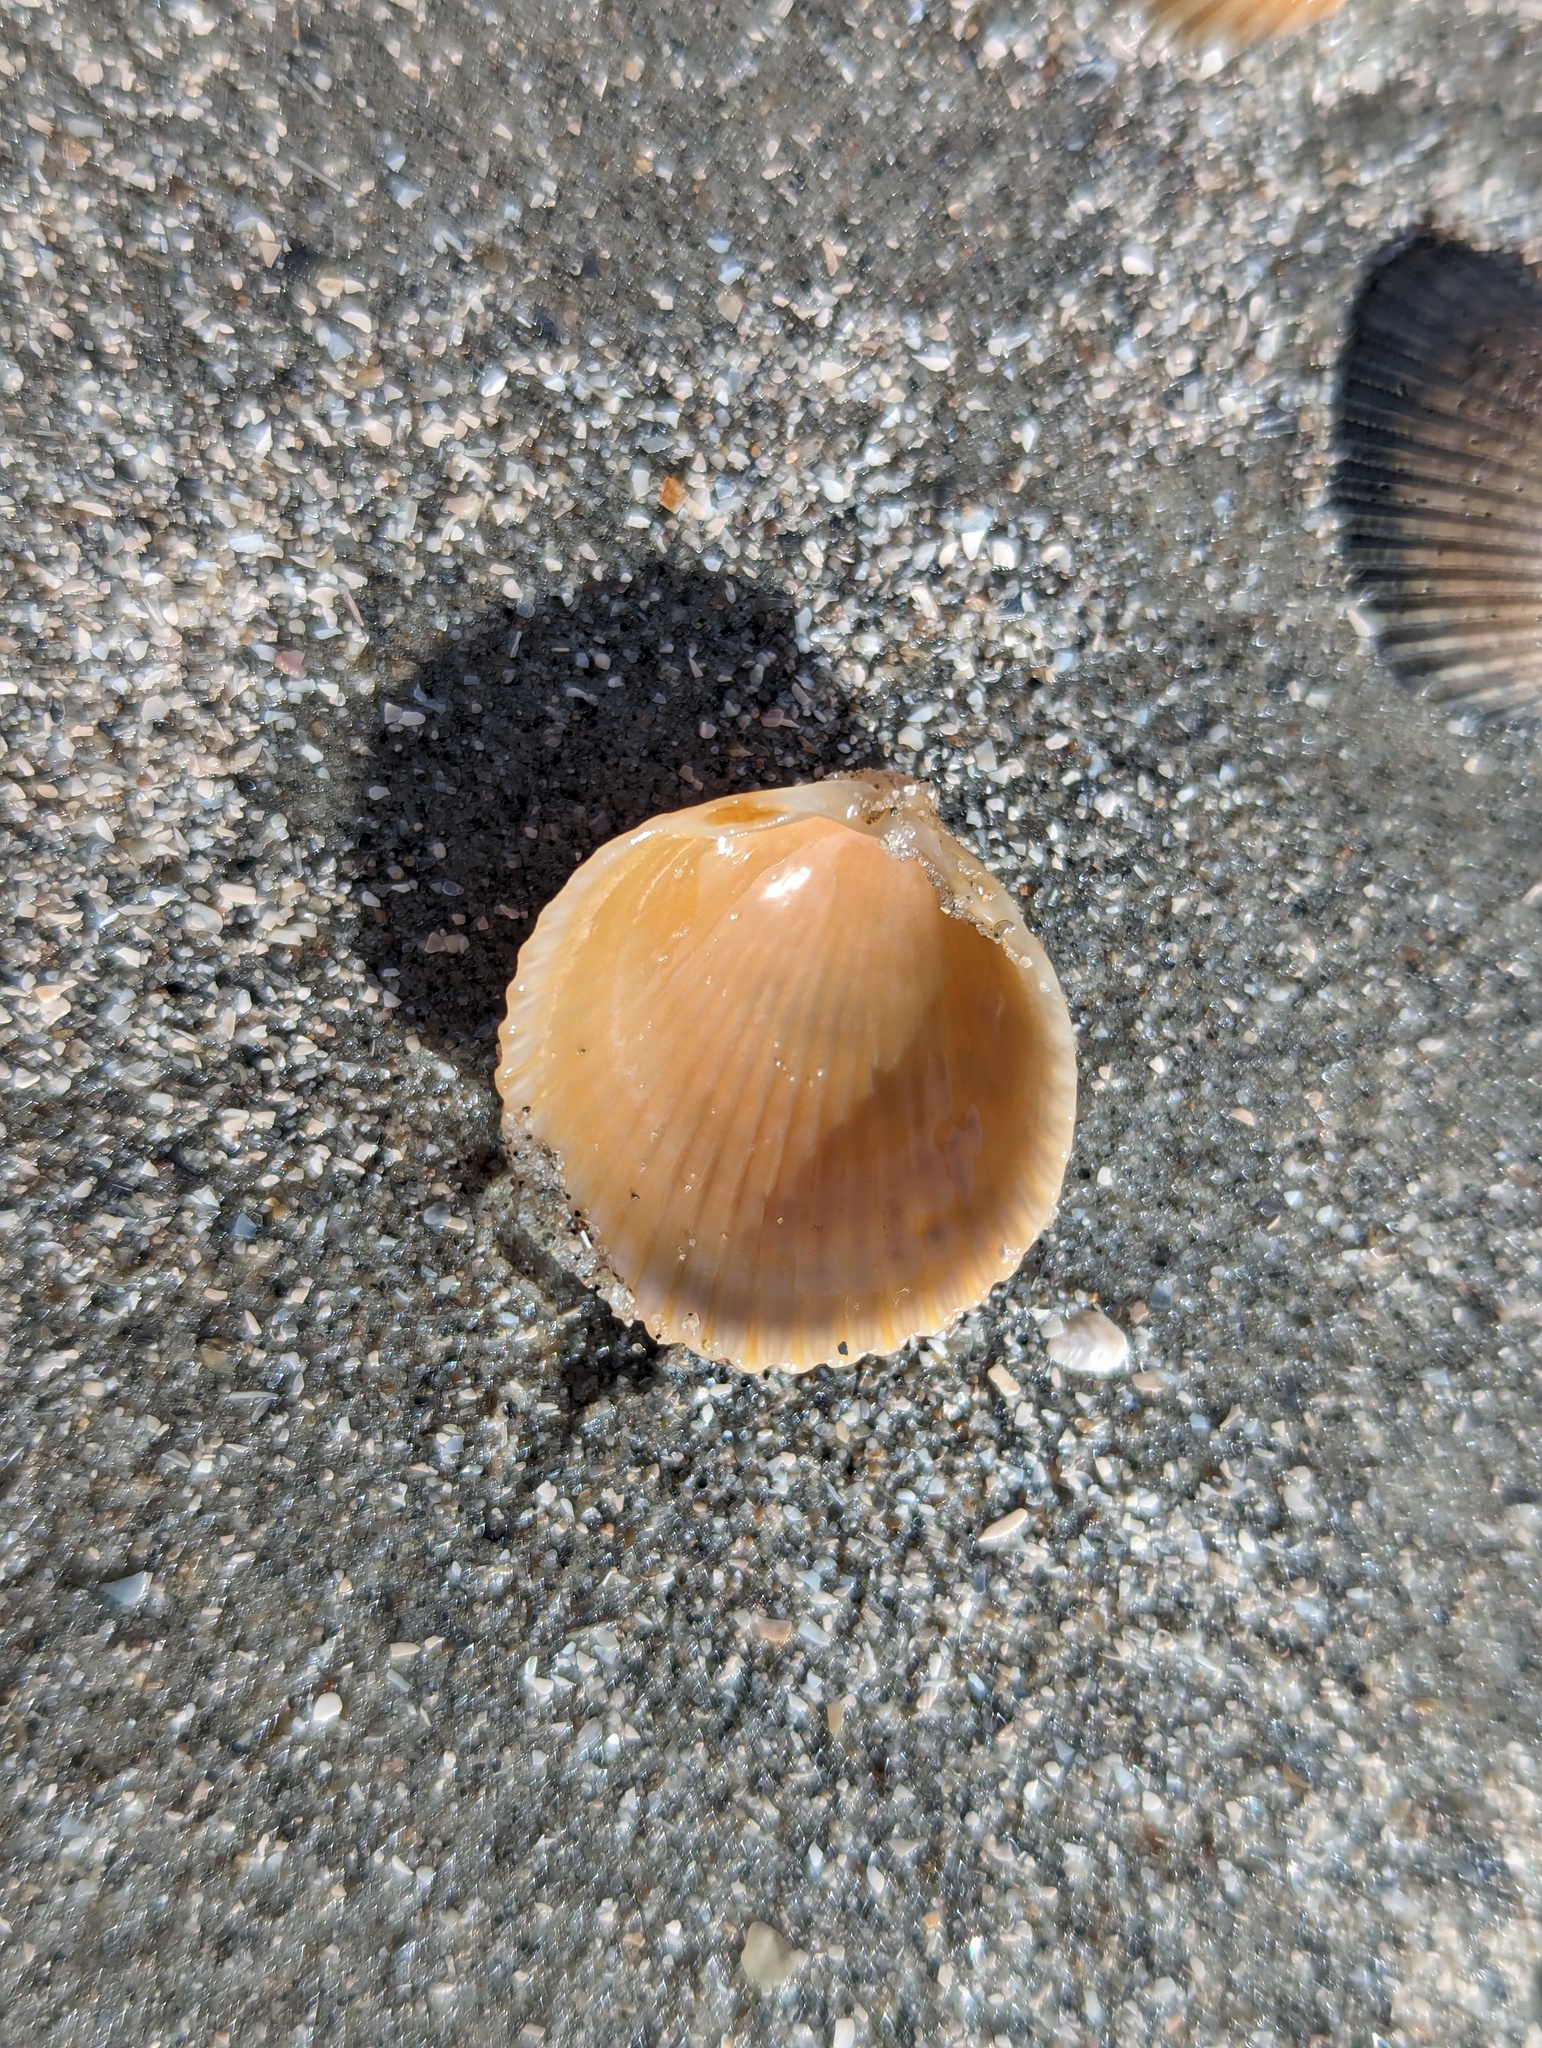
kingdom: Animalia
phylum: Mollusca
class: Bivalvia
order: Cardiida
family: Cardiidae
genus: Dallocardia
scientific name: Dallocardia muricata
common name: Yellow pricklycockle
